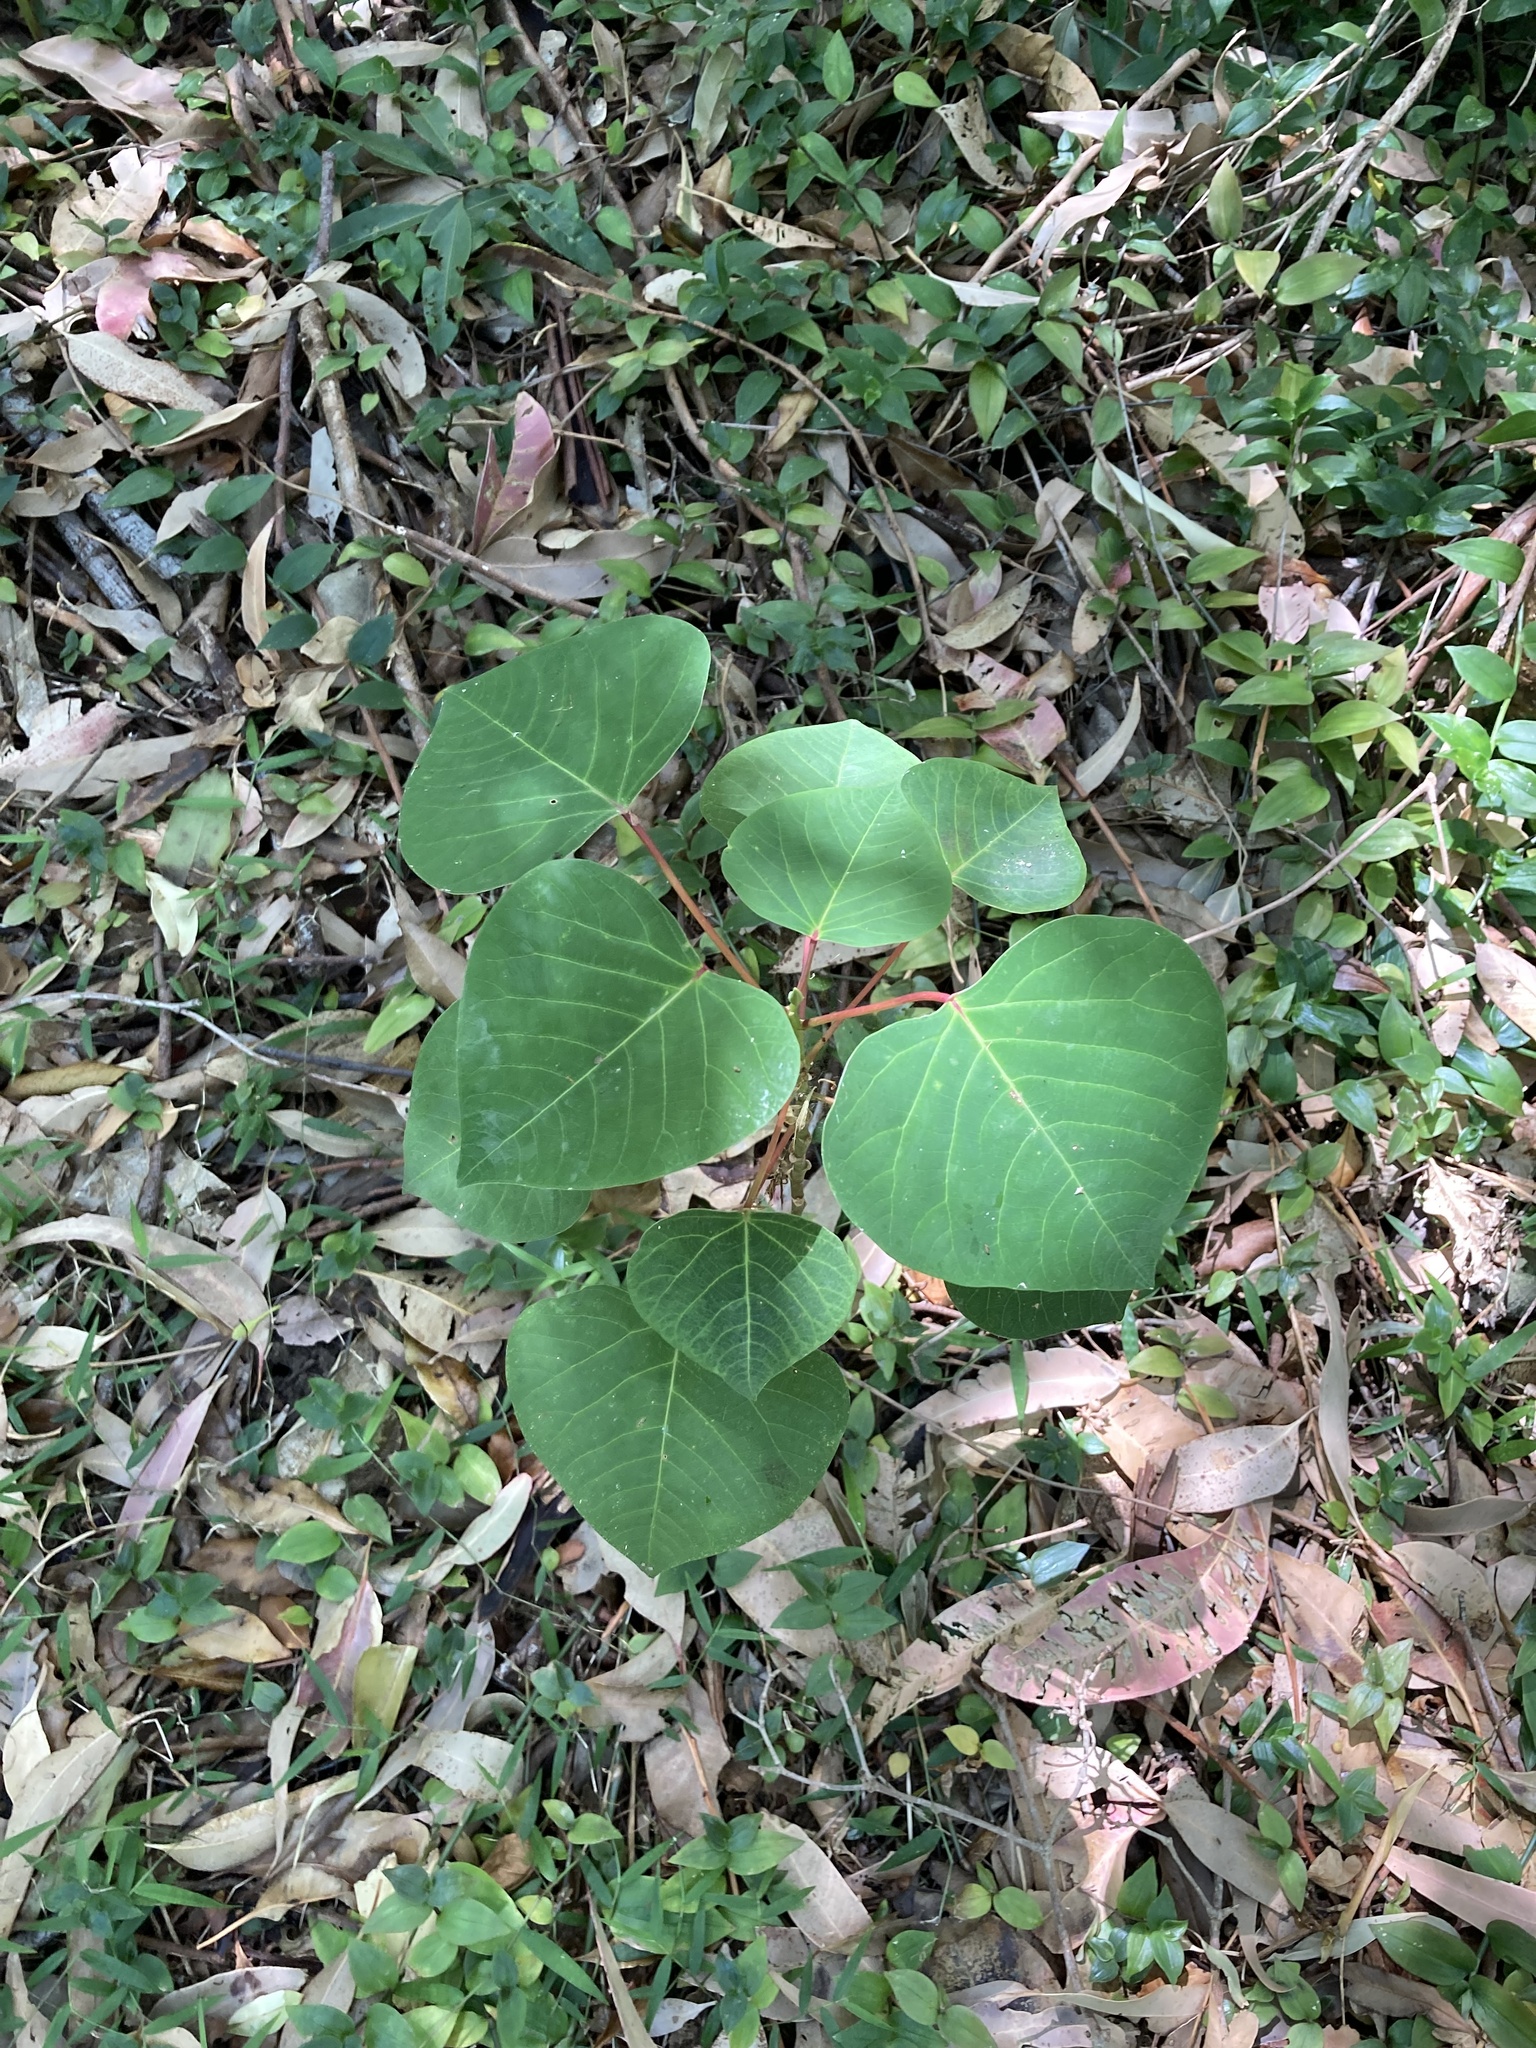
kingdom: Plantae
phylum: Tracheophyta
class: Magnoliopsida
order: Malpighiales
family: Euphorbiaceae
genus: Homalanthus
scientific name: Homalanthus populifolius
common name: Queensland poplar
